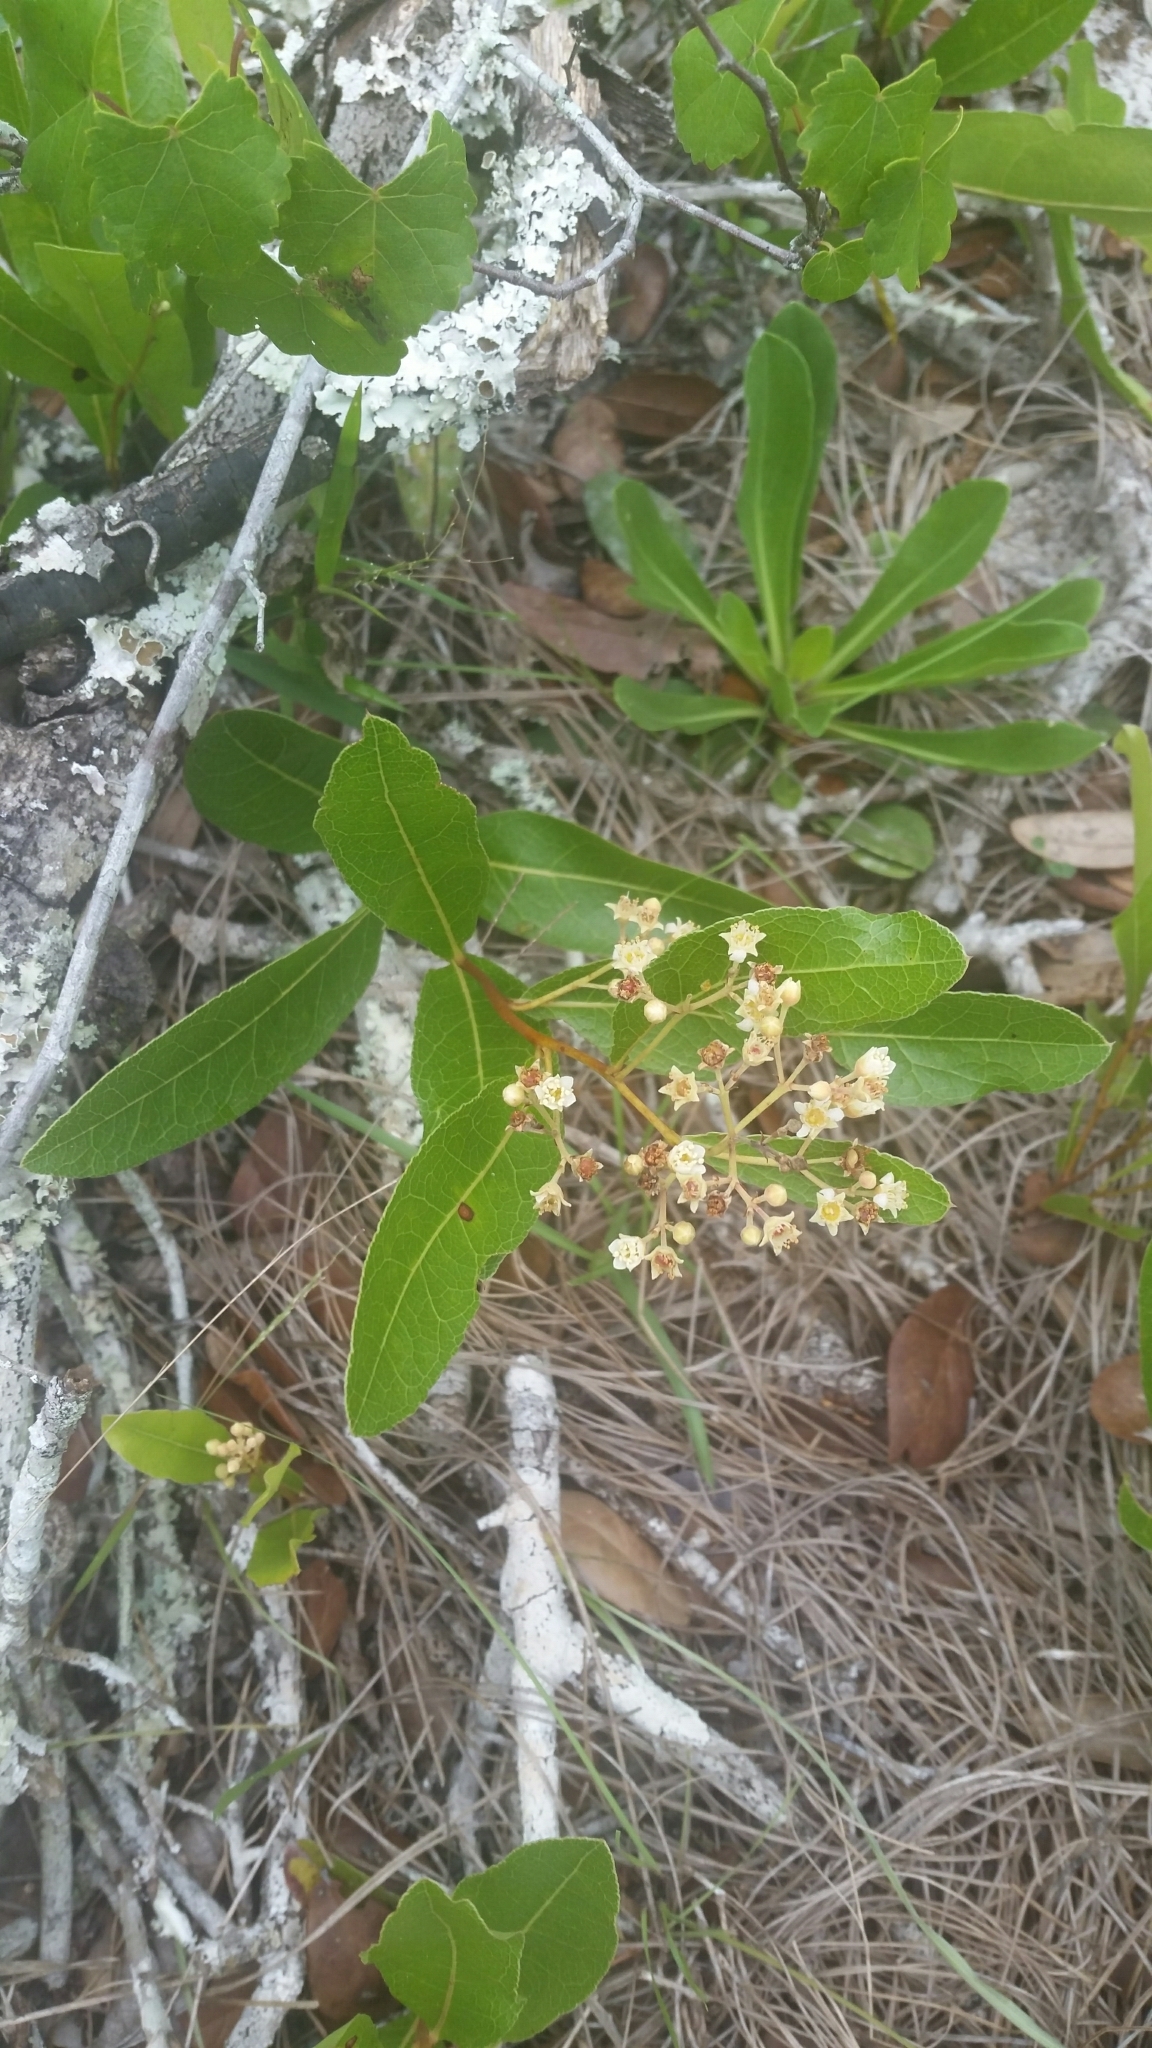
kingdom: Plantae
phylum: Tracheophyta
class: Magnoliopsida
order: Malpighiales
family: Chrysobalanaceae
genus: Geobalanus
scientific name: Geobalanus oblongifolius
